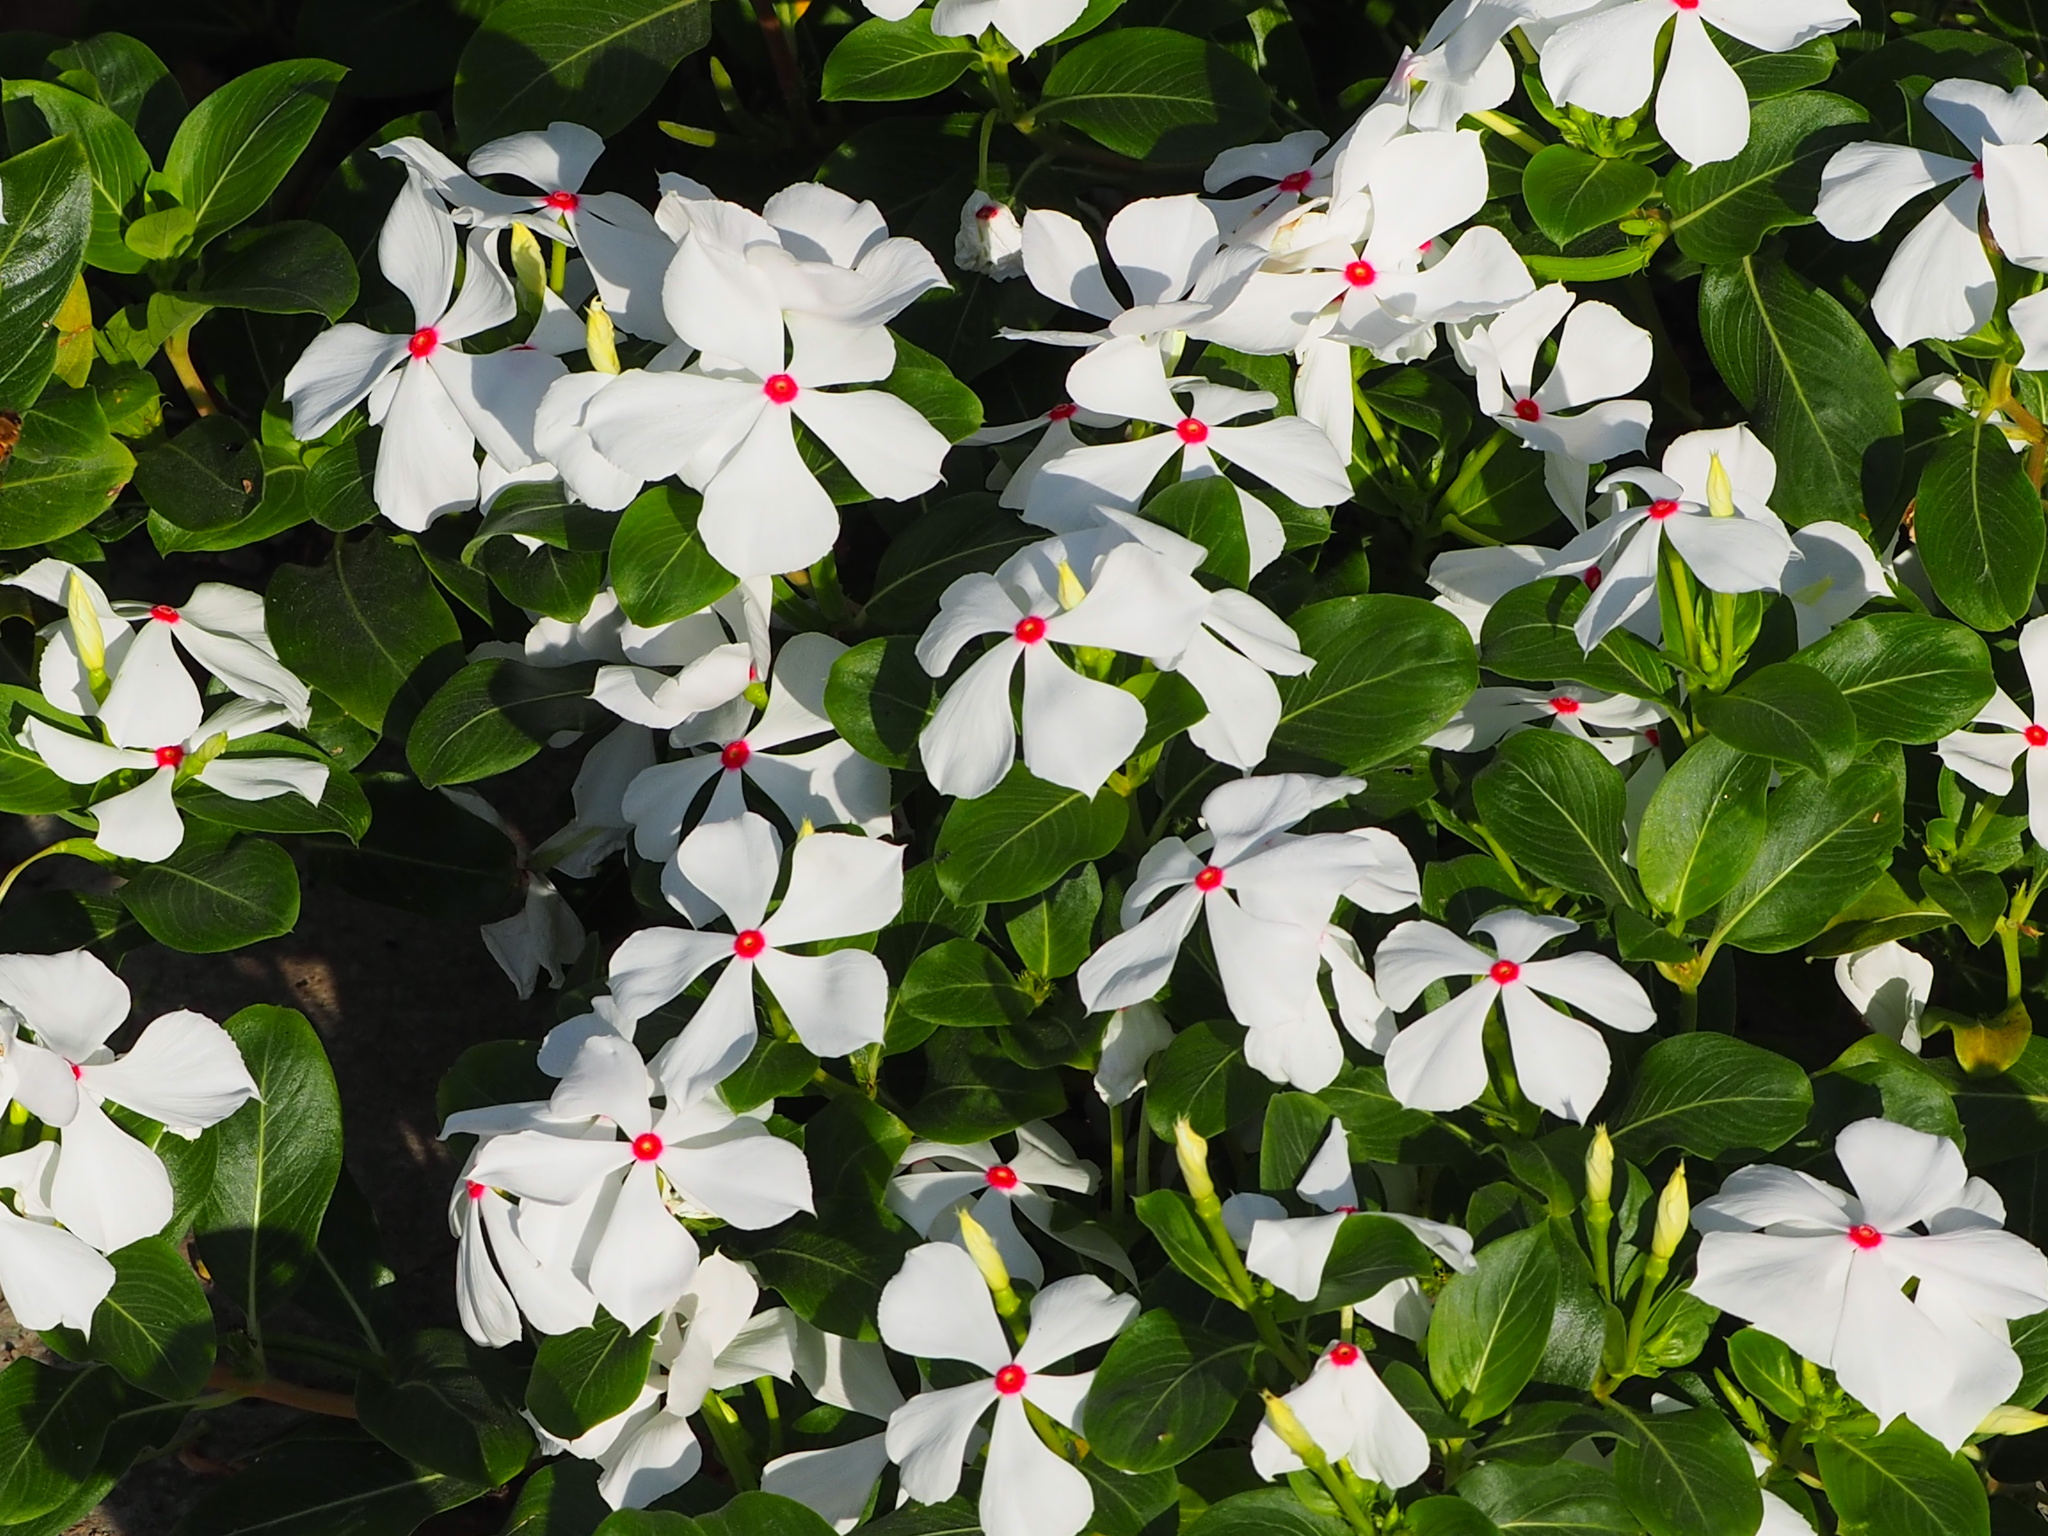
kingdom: Plantae
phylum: Tracheophyta
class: Magnoliopsida
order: Gentianales
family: Apocynaceae
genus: Catharanthus
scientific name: Catharanthus roseus
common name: Madagascar periwinkle
